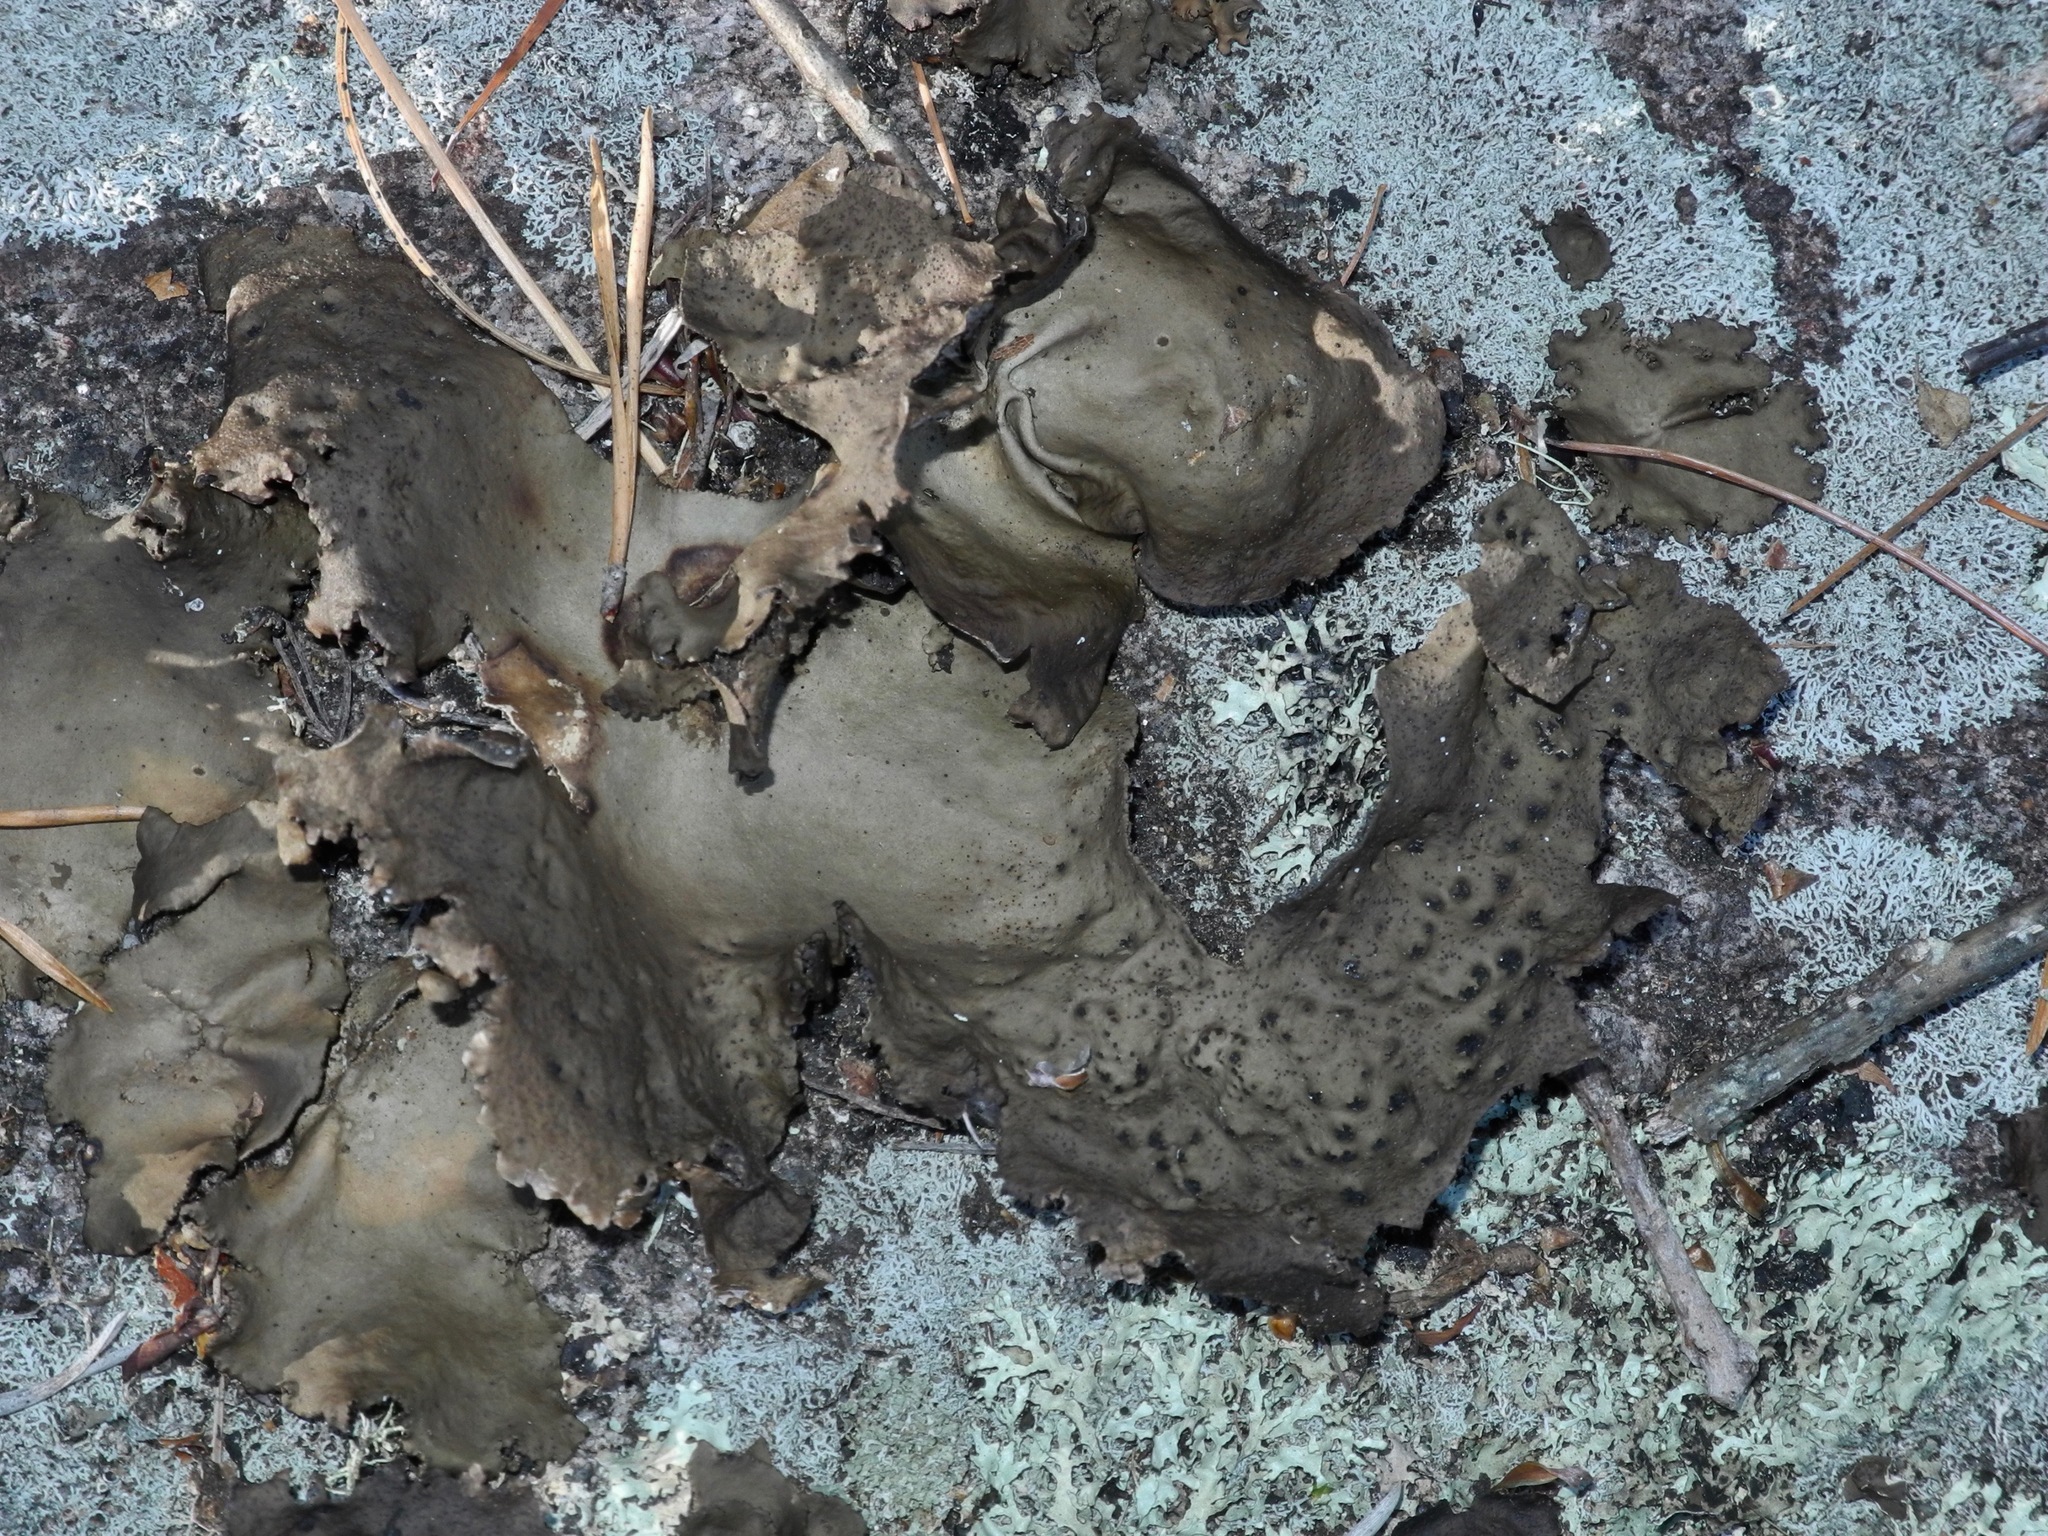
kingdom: Fungi
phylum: Ascomycota
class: Lecanoromycetes
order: Umbilicariales
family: Umbilicariaceae
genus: Umbilicaria
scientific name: Umbilicaria muhlenbergii
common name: Lesser rocktripe
